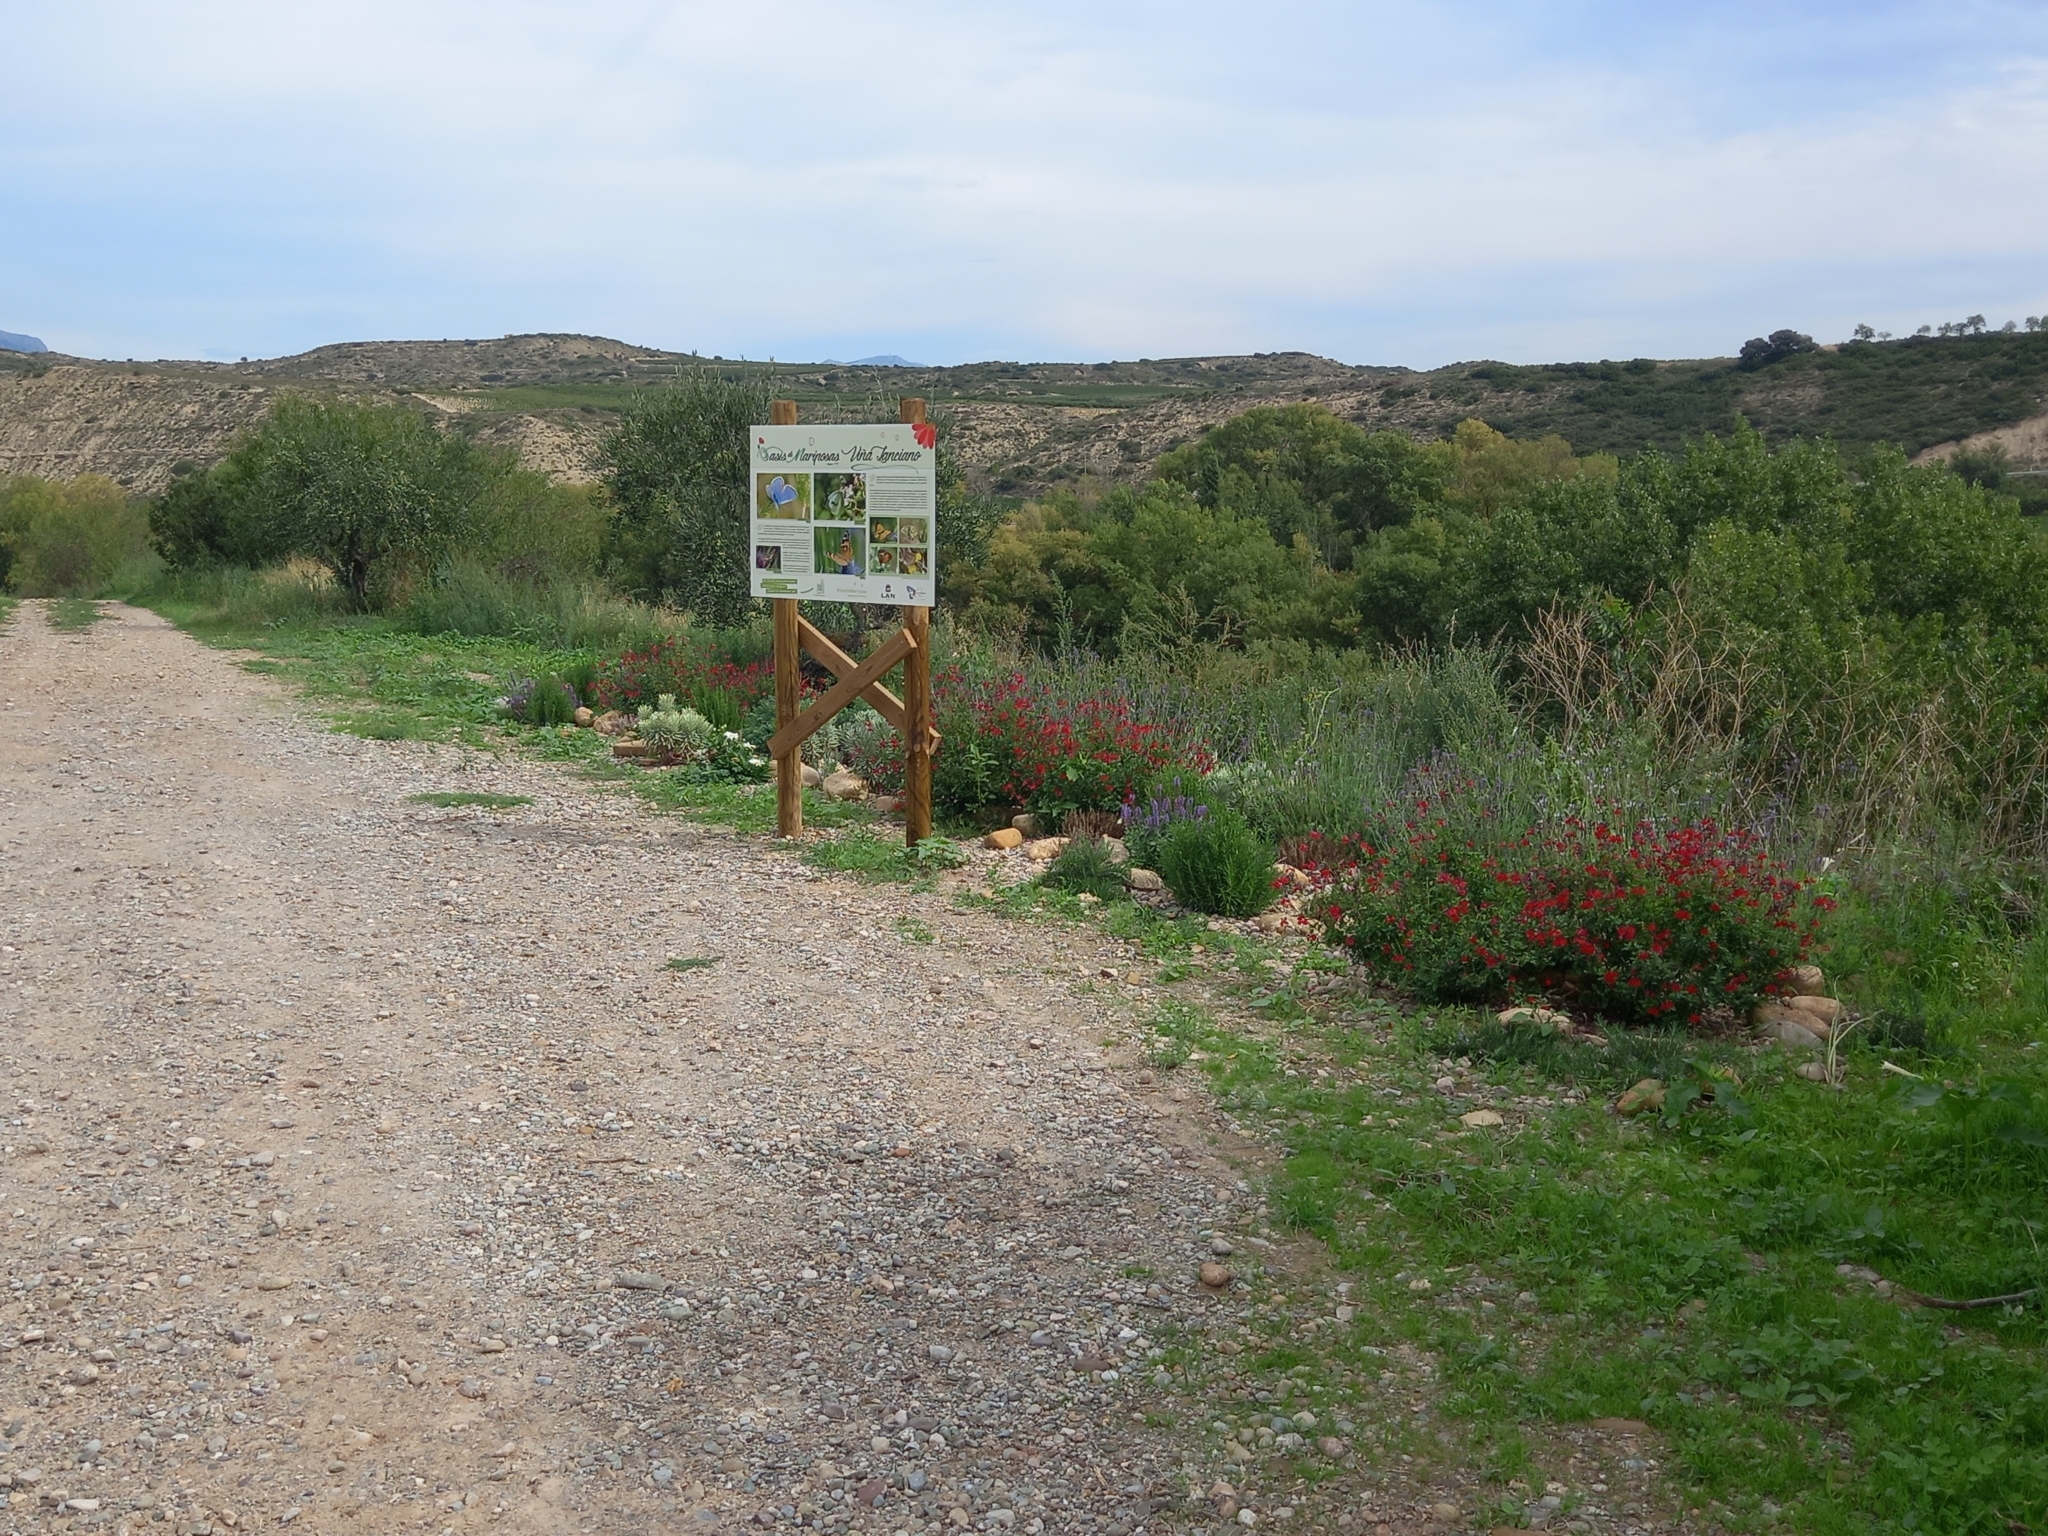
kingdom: Animalia
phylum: Arthropoda
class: Insecta
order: Lepidoptera
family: Nymphalidae
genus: Vanessa
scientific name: Vanessa atalanta
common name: Red admiral
